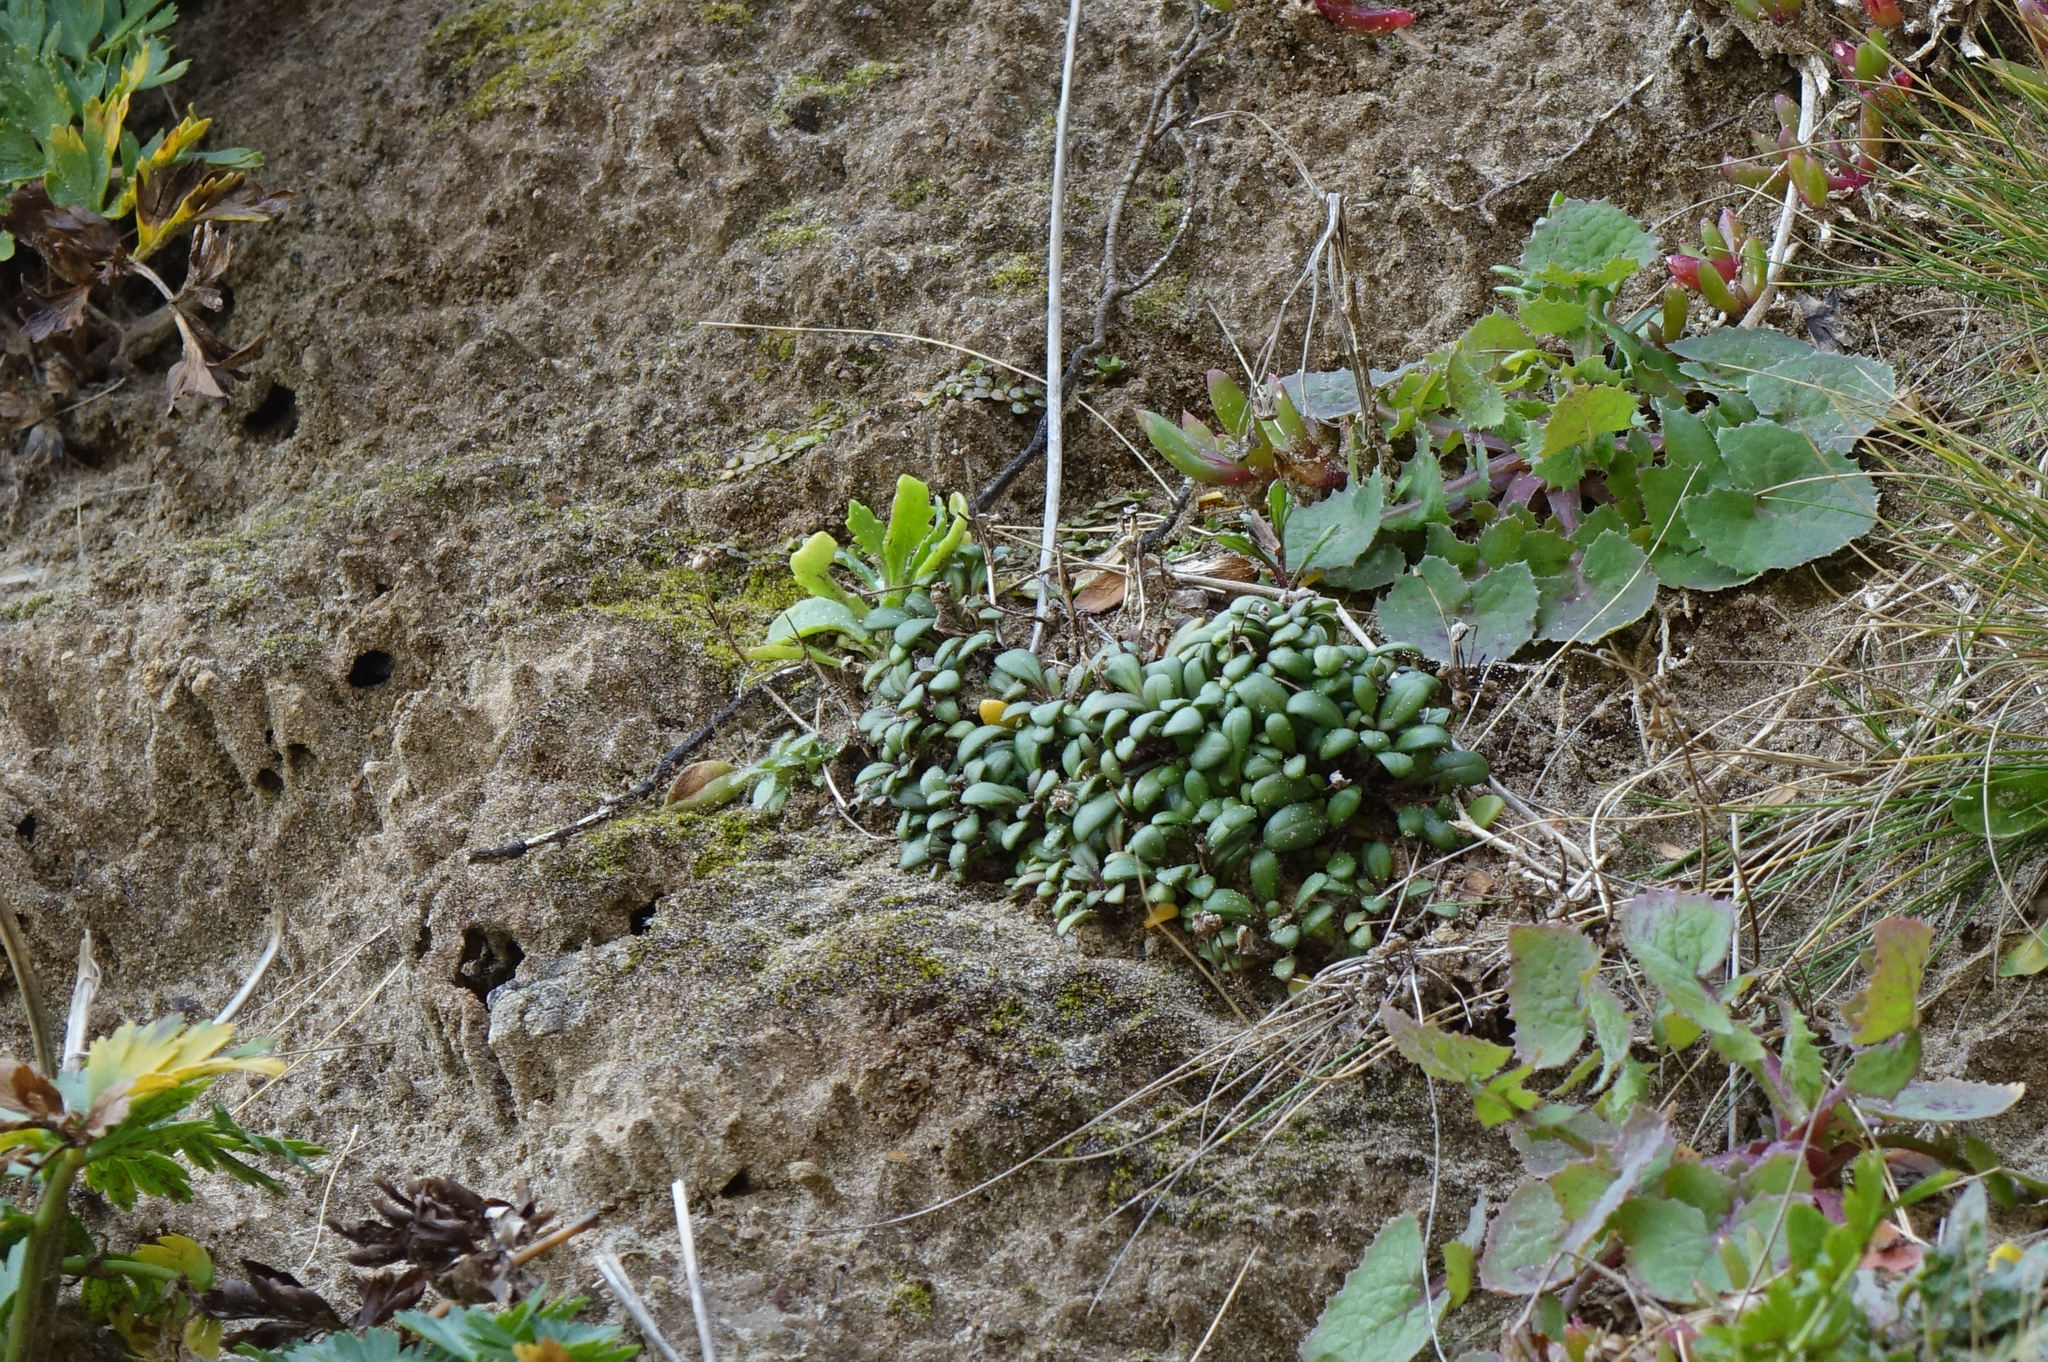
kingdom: Plantae
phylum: Tracheophyta
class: Magnoliopsida
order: Gentianales
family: Gentianaceae
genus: Gentianella
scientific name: Gentianella saxosa
